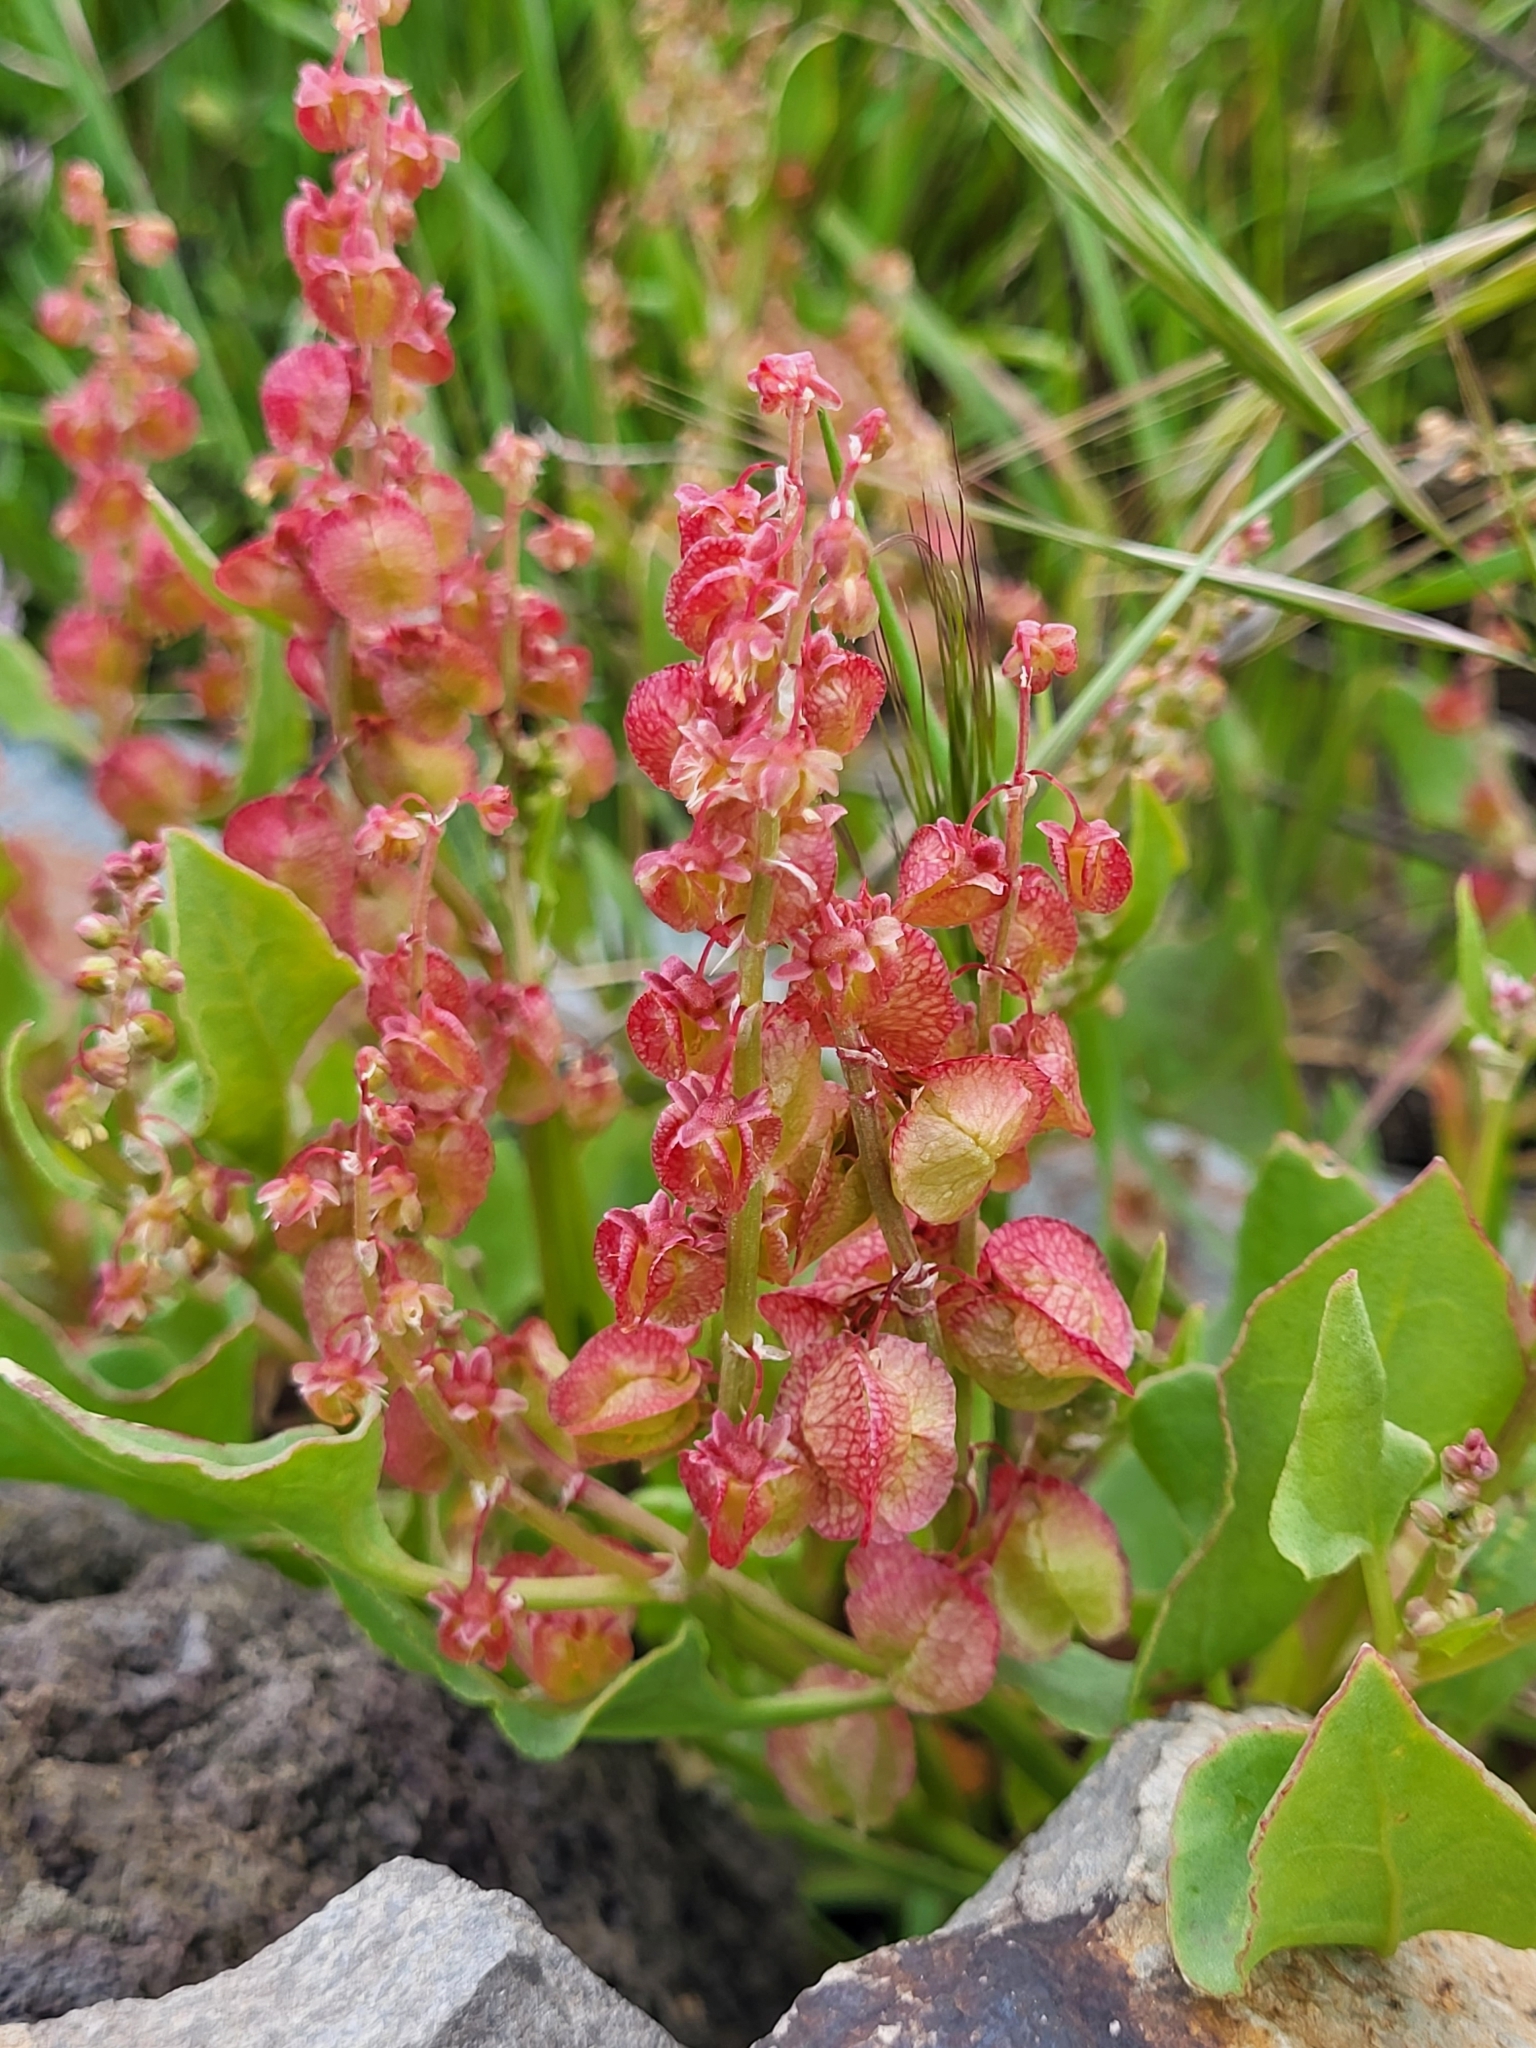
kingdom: Plantae
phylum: Tracheophyta
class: Magnoliopsida
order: Caryophyllales
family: Polygonaceae
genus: Rumex
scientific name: Rumex vesicarius
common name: Bladder dock
